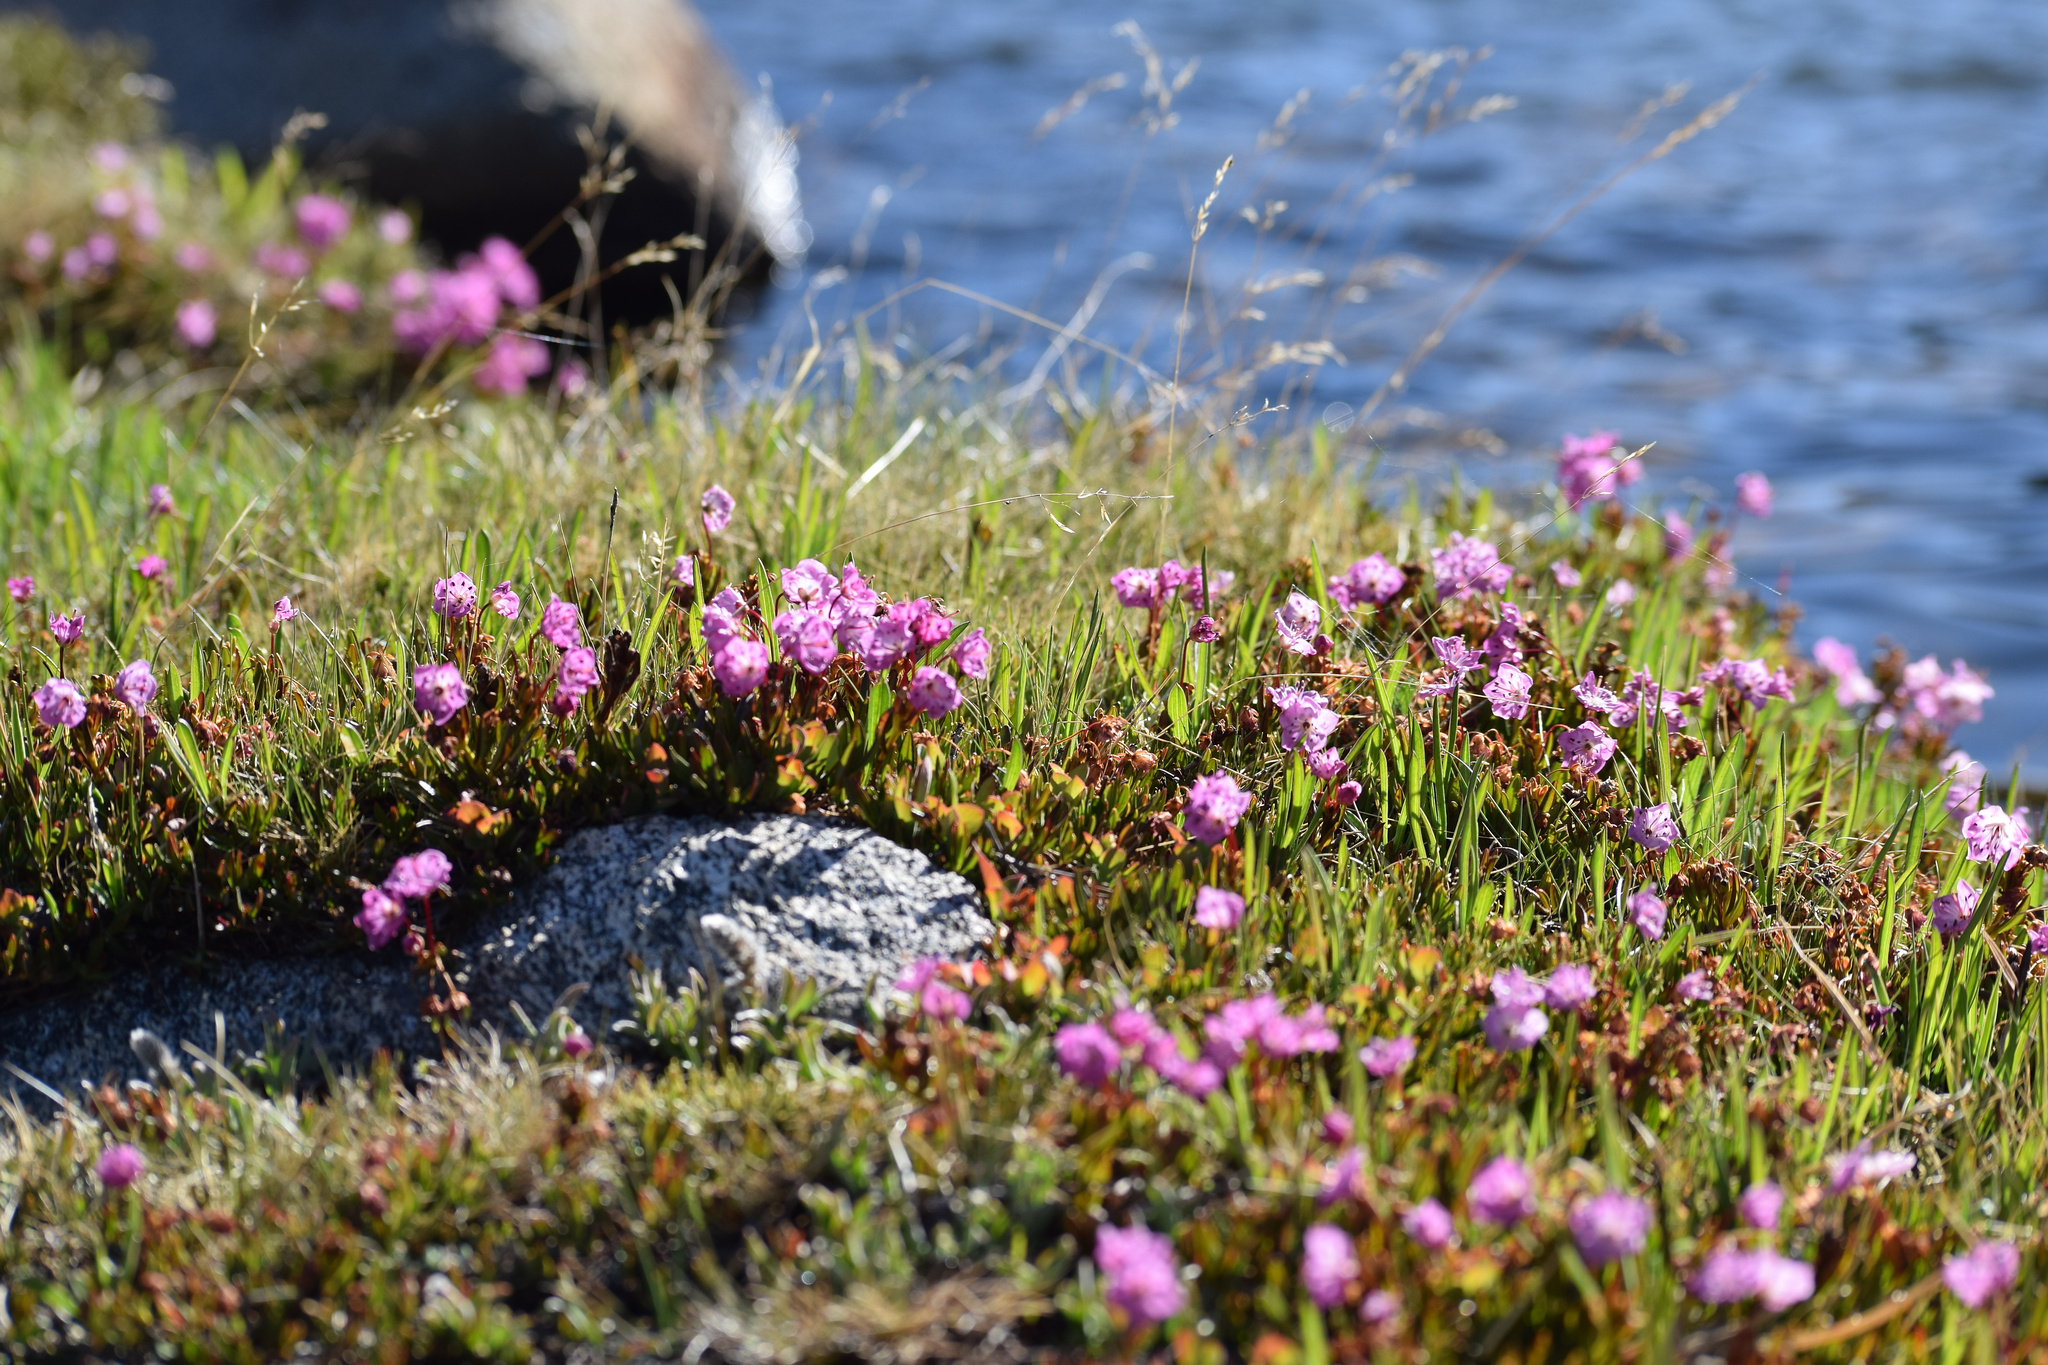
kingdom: Plantae
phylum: Tracheophyta
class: Magnoliopsida
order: Ericales
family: Ericaceae
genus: Kalmia
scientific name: Kalmia microphylla
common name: Alpine bog laurel
